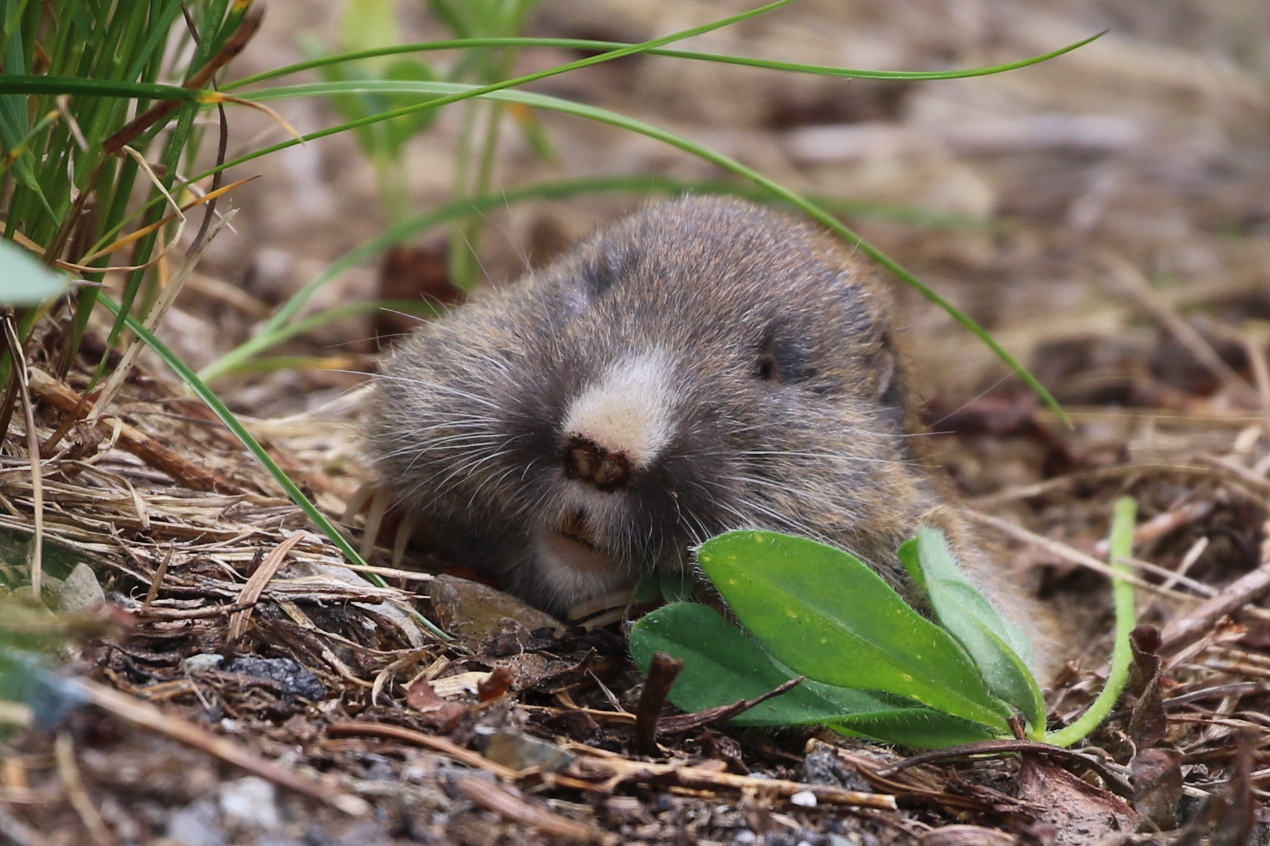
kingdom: Animalia
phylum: Chordata
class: Mammalia
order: Rodentia
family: Geomyidae
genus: Thomomys
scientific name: Thomomys talpoides
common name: Northern pocket gopher
